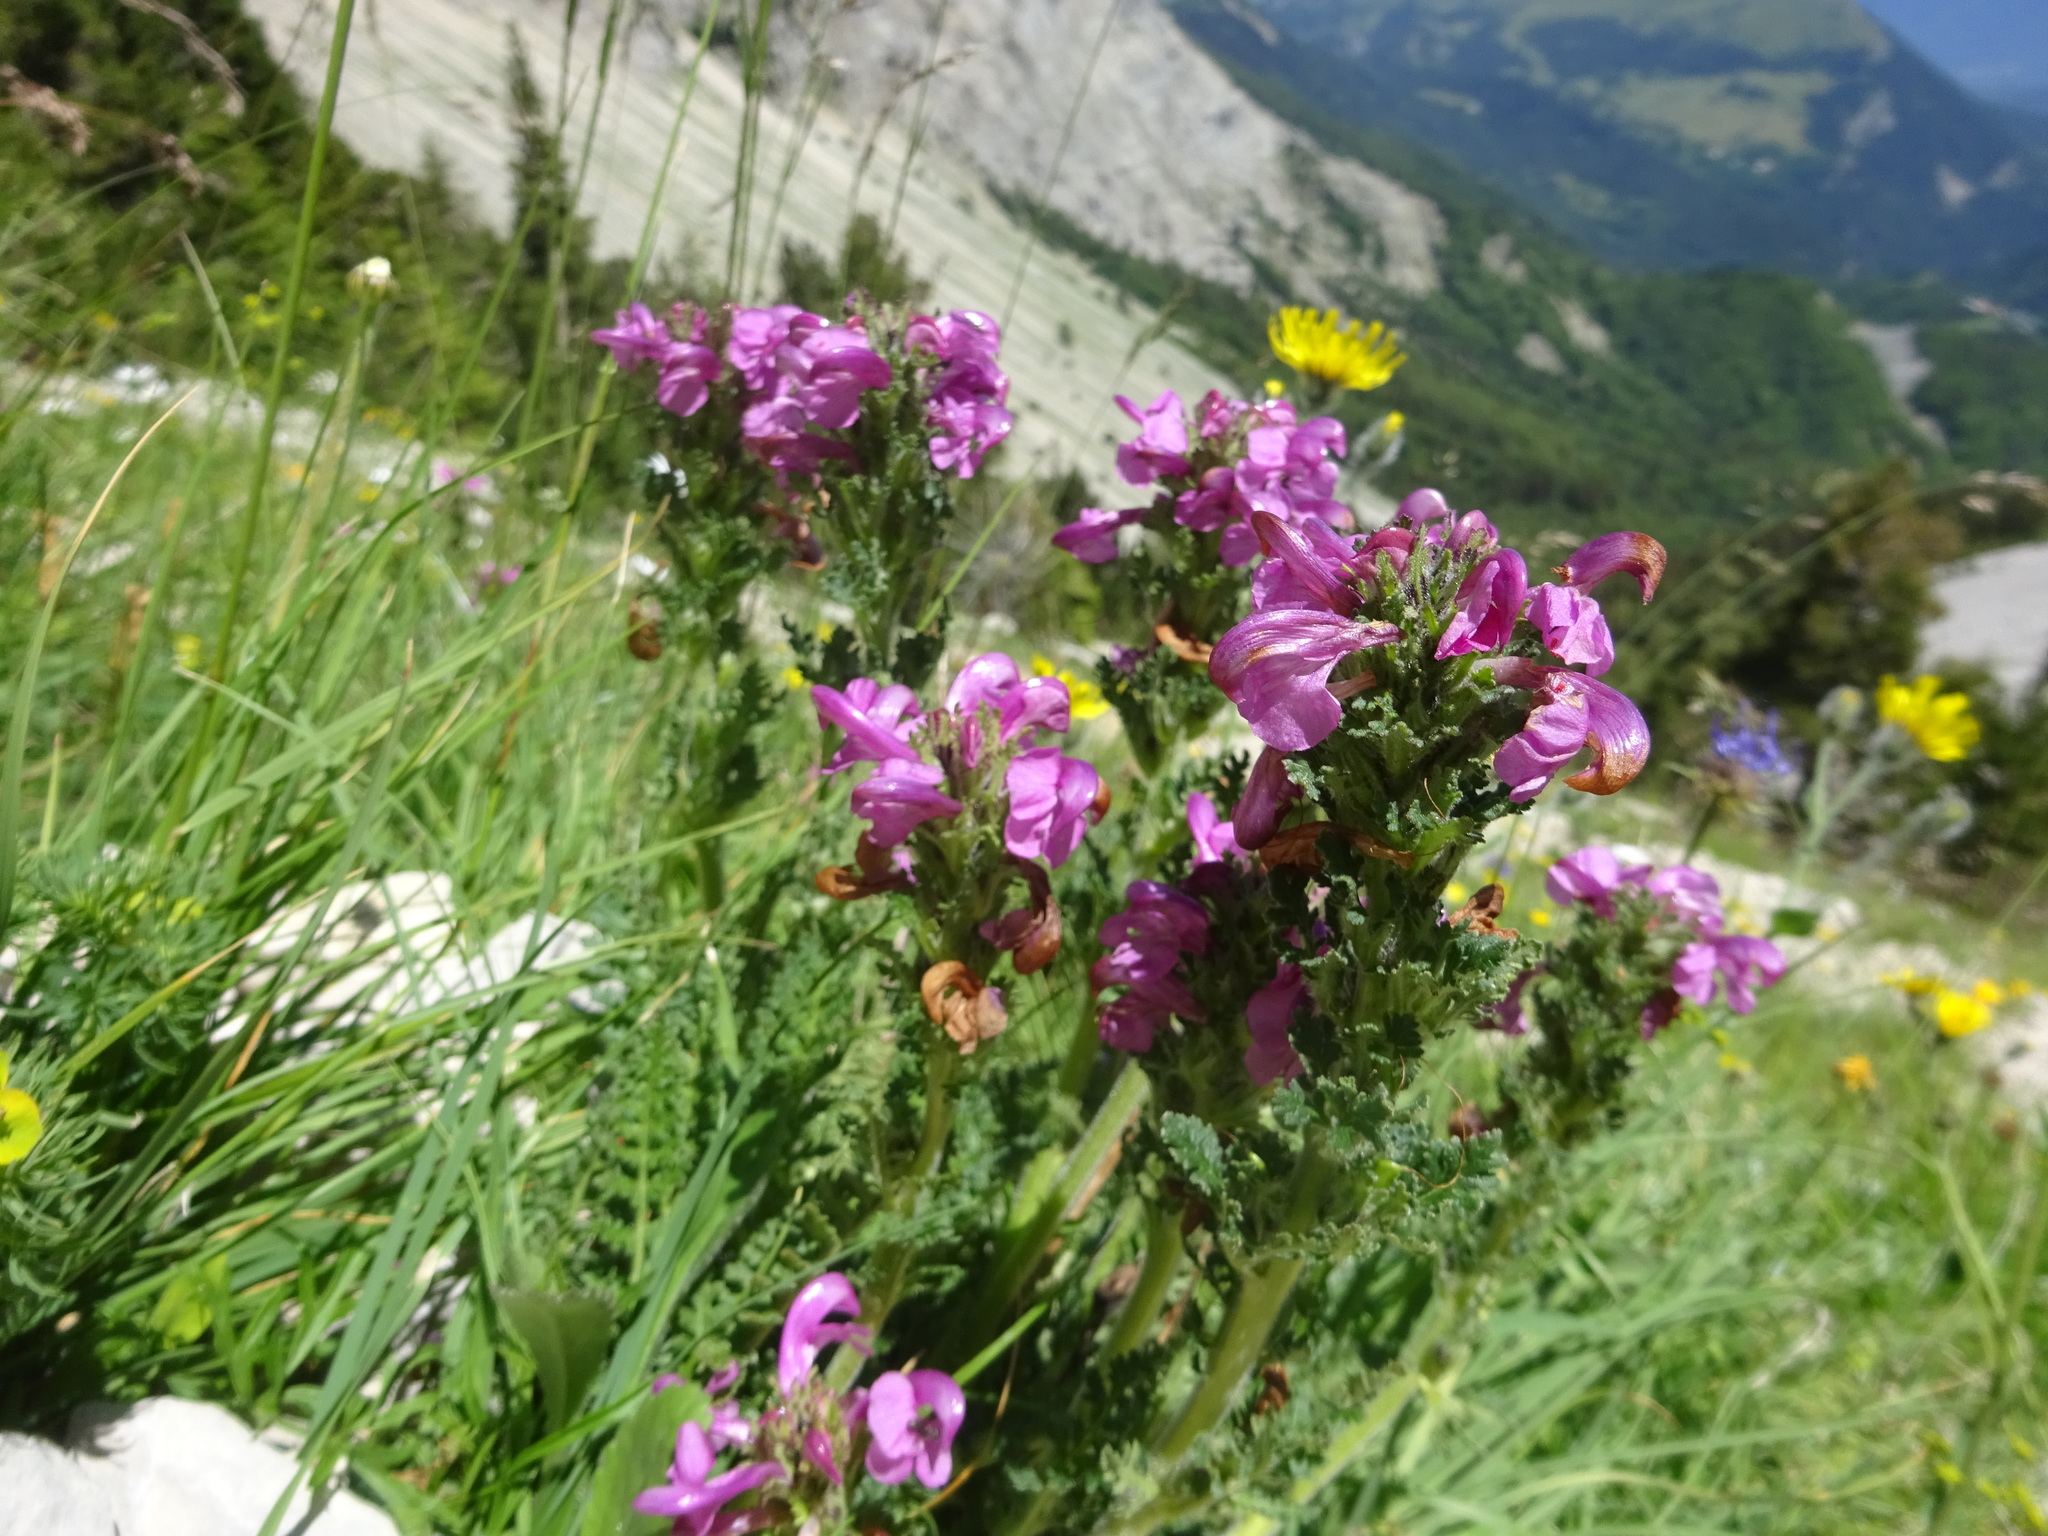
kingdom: Plantae
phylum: Tracheophyta
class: Magnoliopsida
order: Lamiales
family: Orobanchaceae
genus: Pedicularis
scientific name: Pedicularis gyroflexa
